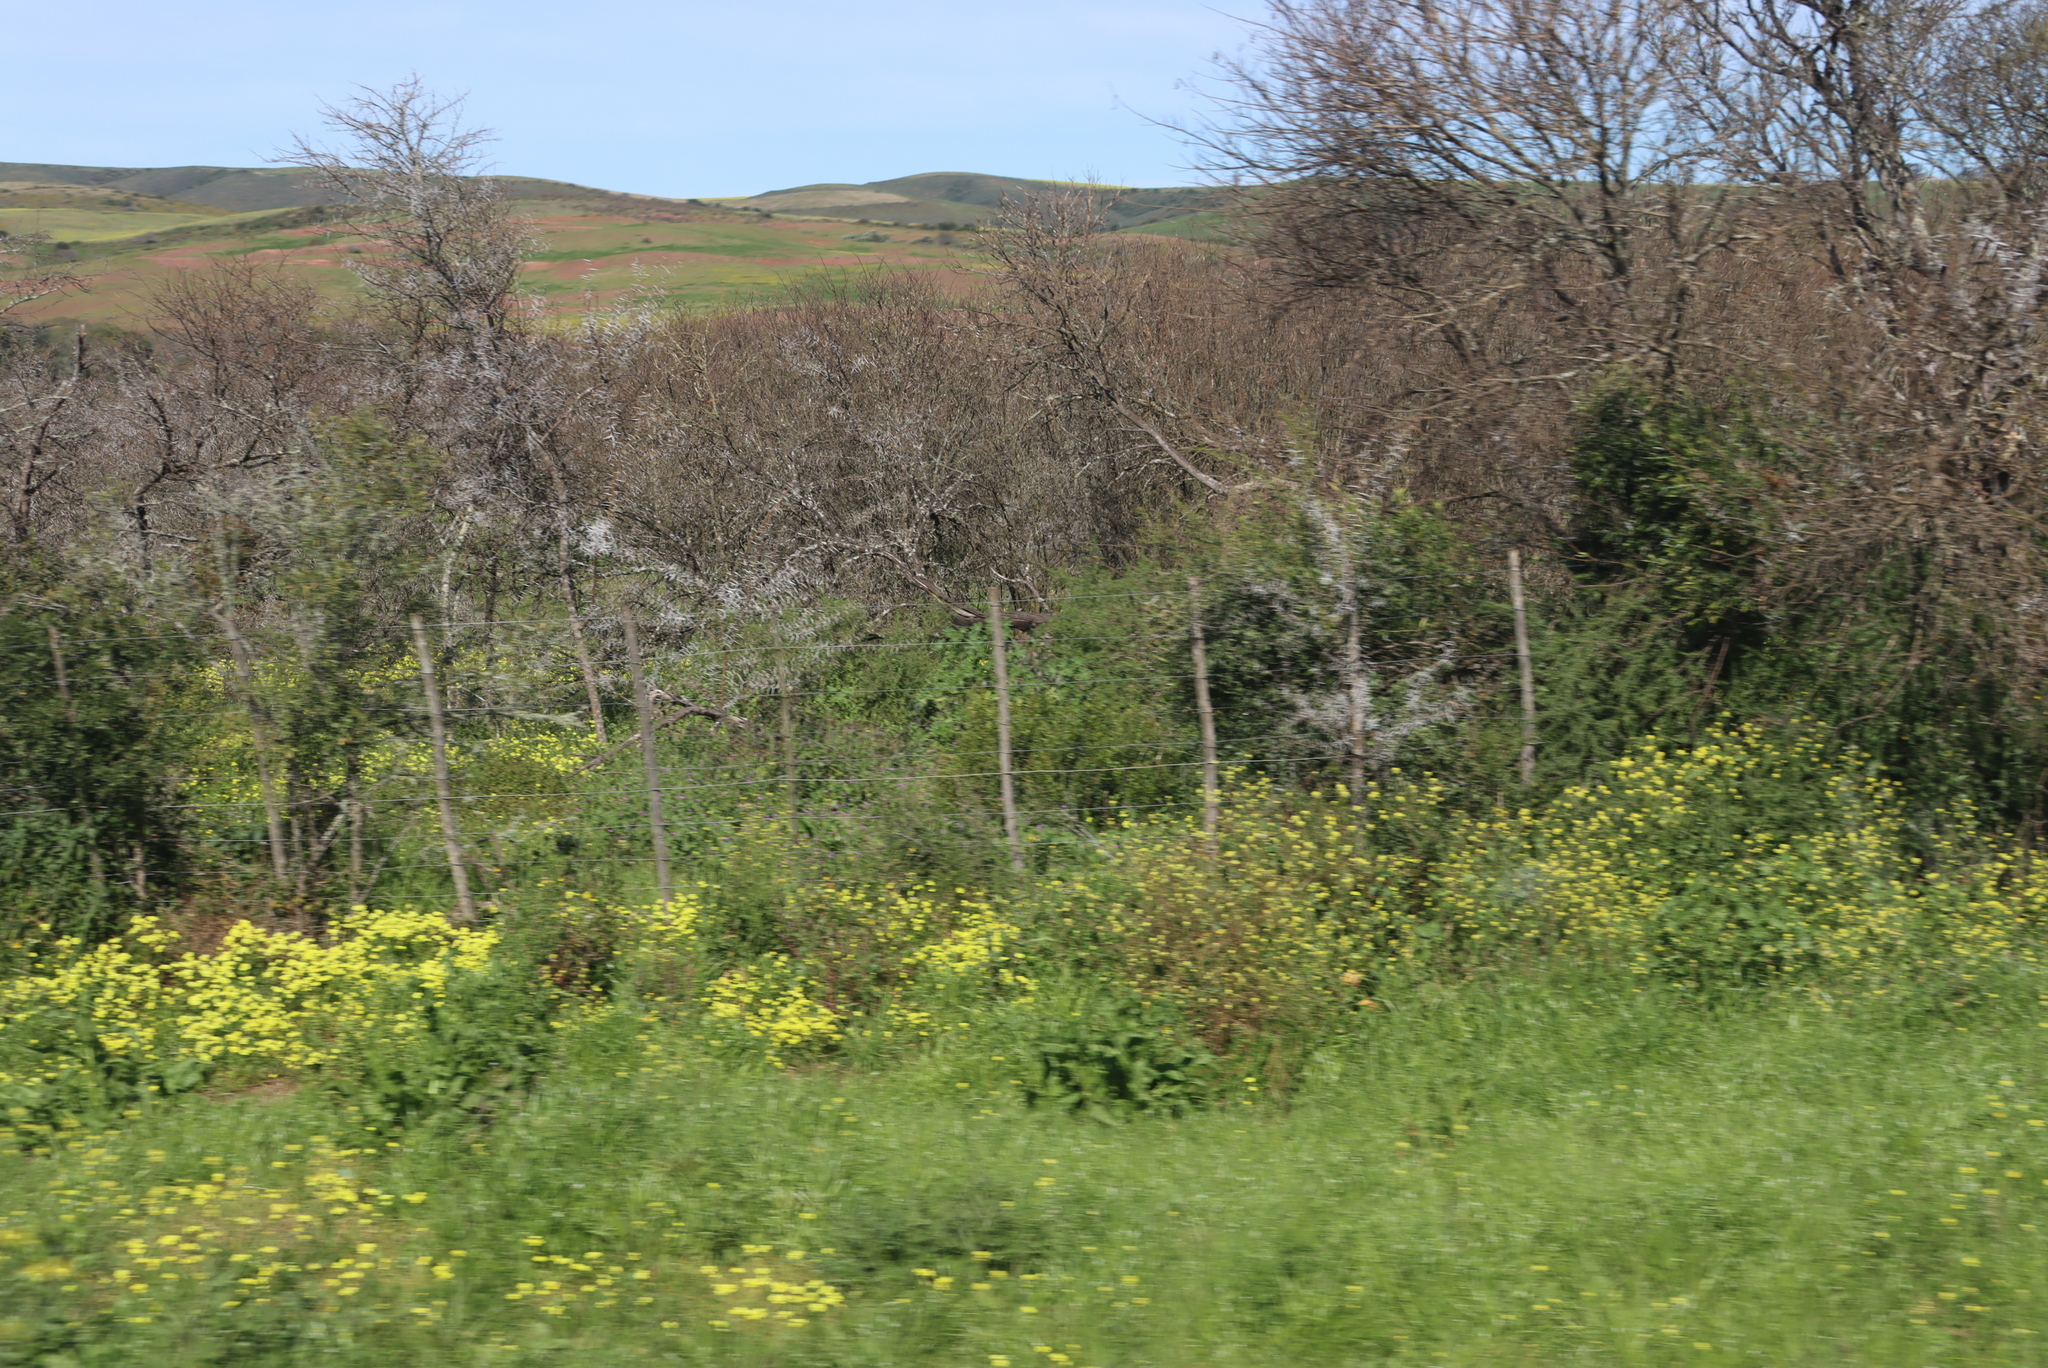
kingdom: Plantae
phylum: Tracheophyta
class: Magnoliopsida
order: Fabales
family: Fabaceae
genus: Vachellia
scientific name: Vachellia karroo
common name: Sweet thorn
